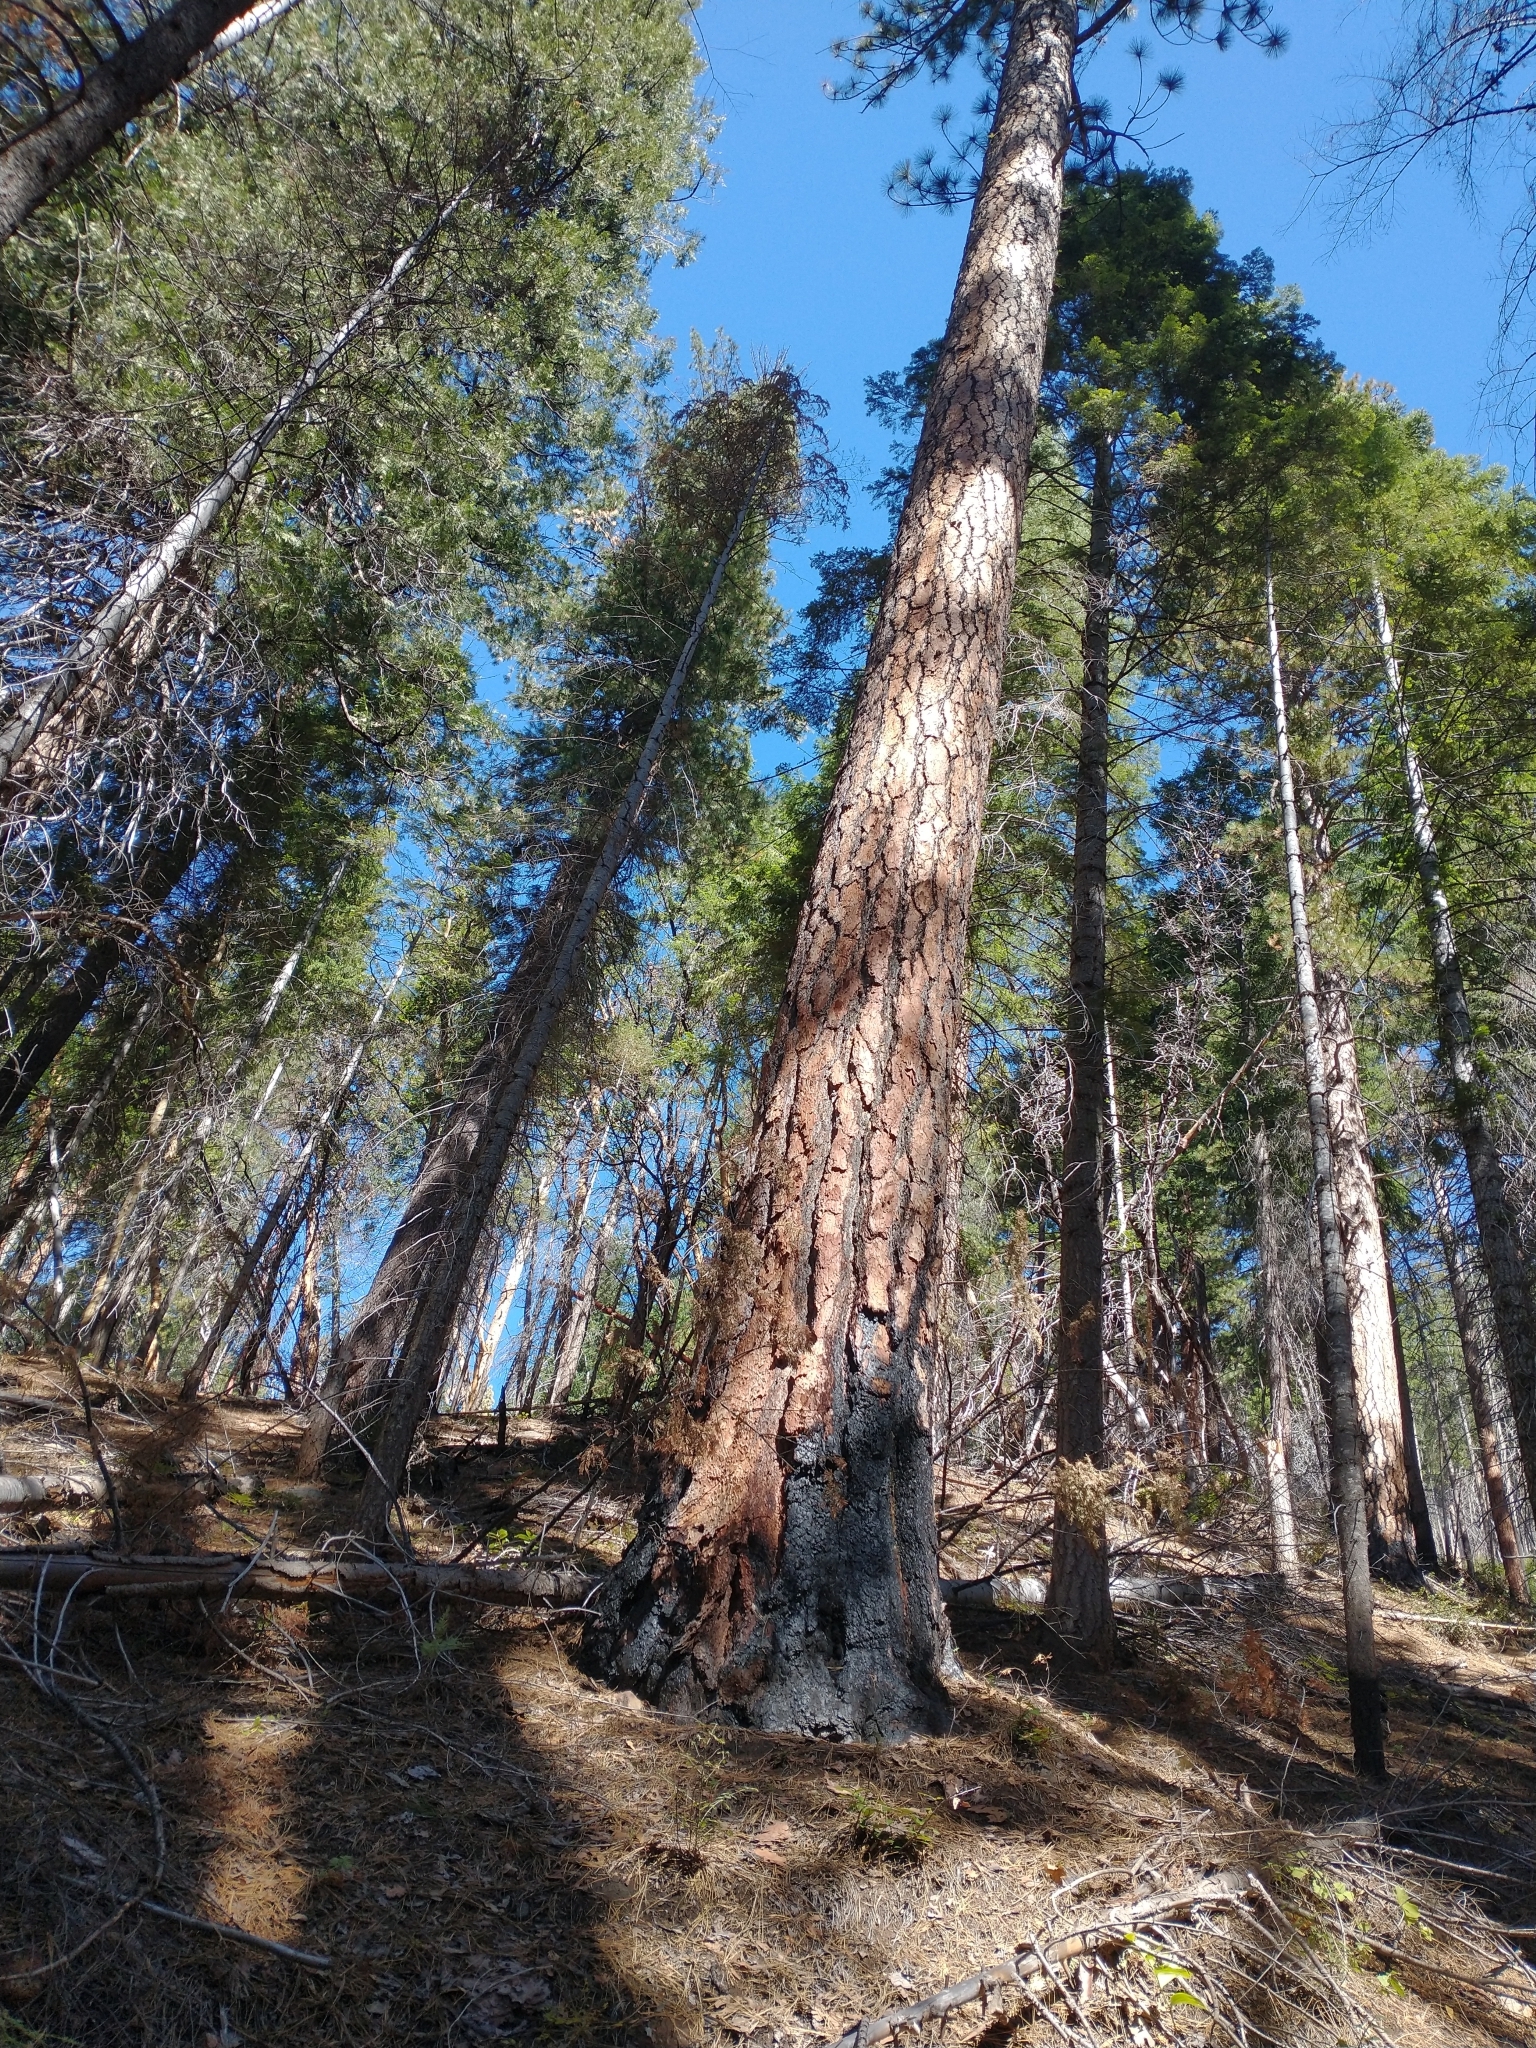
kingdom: Plantae
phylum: Tracheophyta
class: Pinopsida
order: Pinales
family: Pinaceae
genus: Pinus
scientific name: Pinus ponderosa
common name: Western yellow-pine
